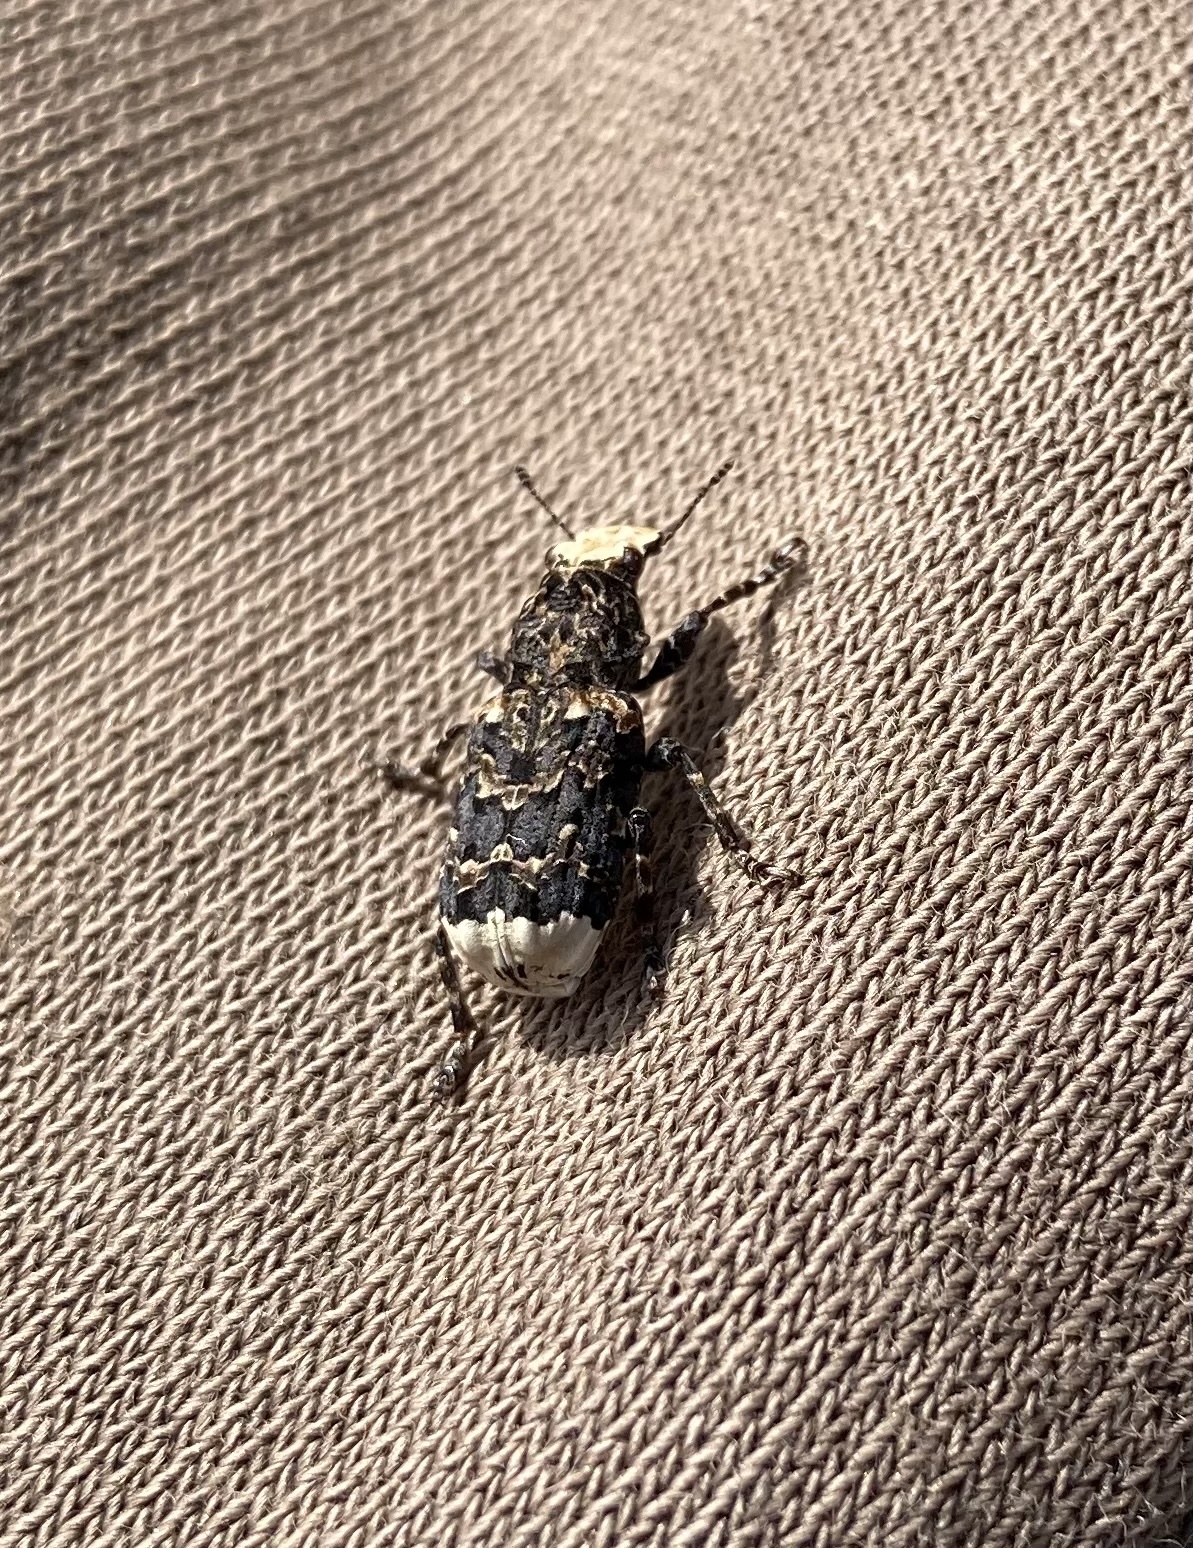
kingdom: Animalia
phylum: Arthropoda
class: Insecta
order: Coleoptera
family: Anthribidae
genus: Platyrhinus
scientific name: Platyrhinus resinosus
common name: Cramp-ball fungus weevil
